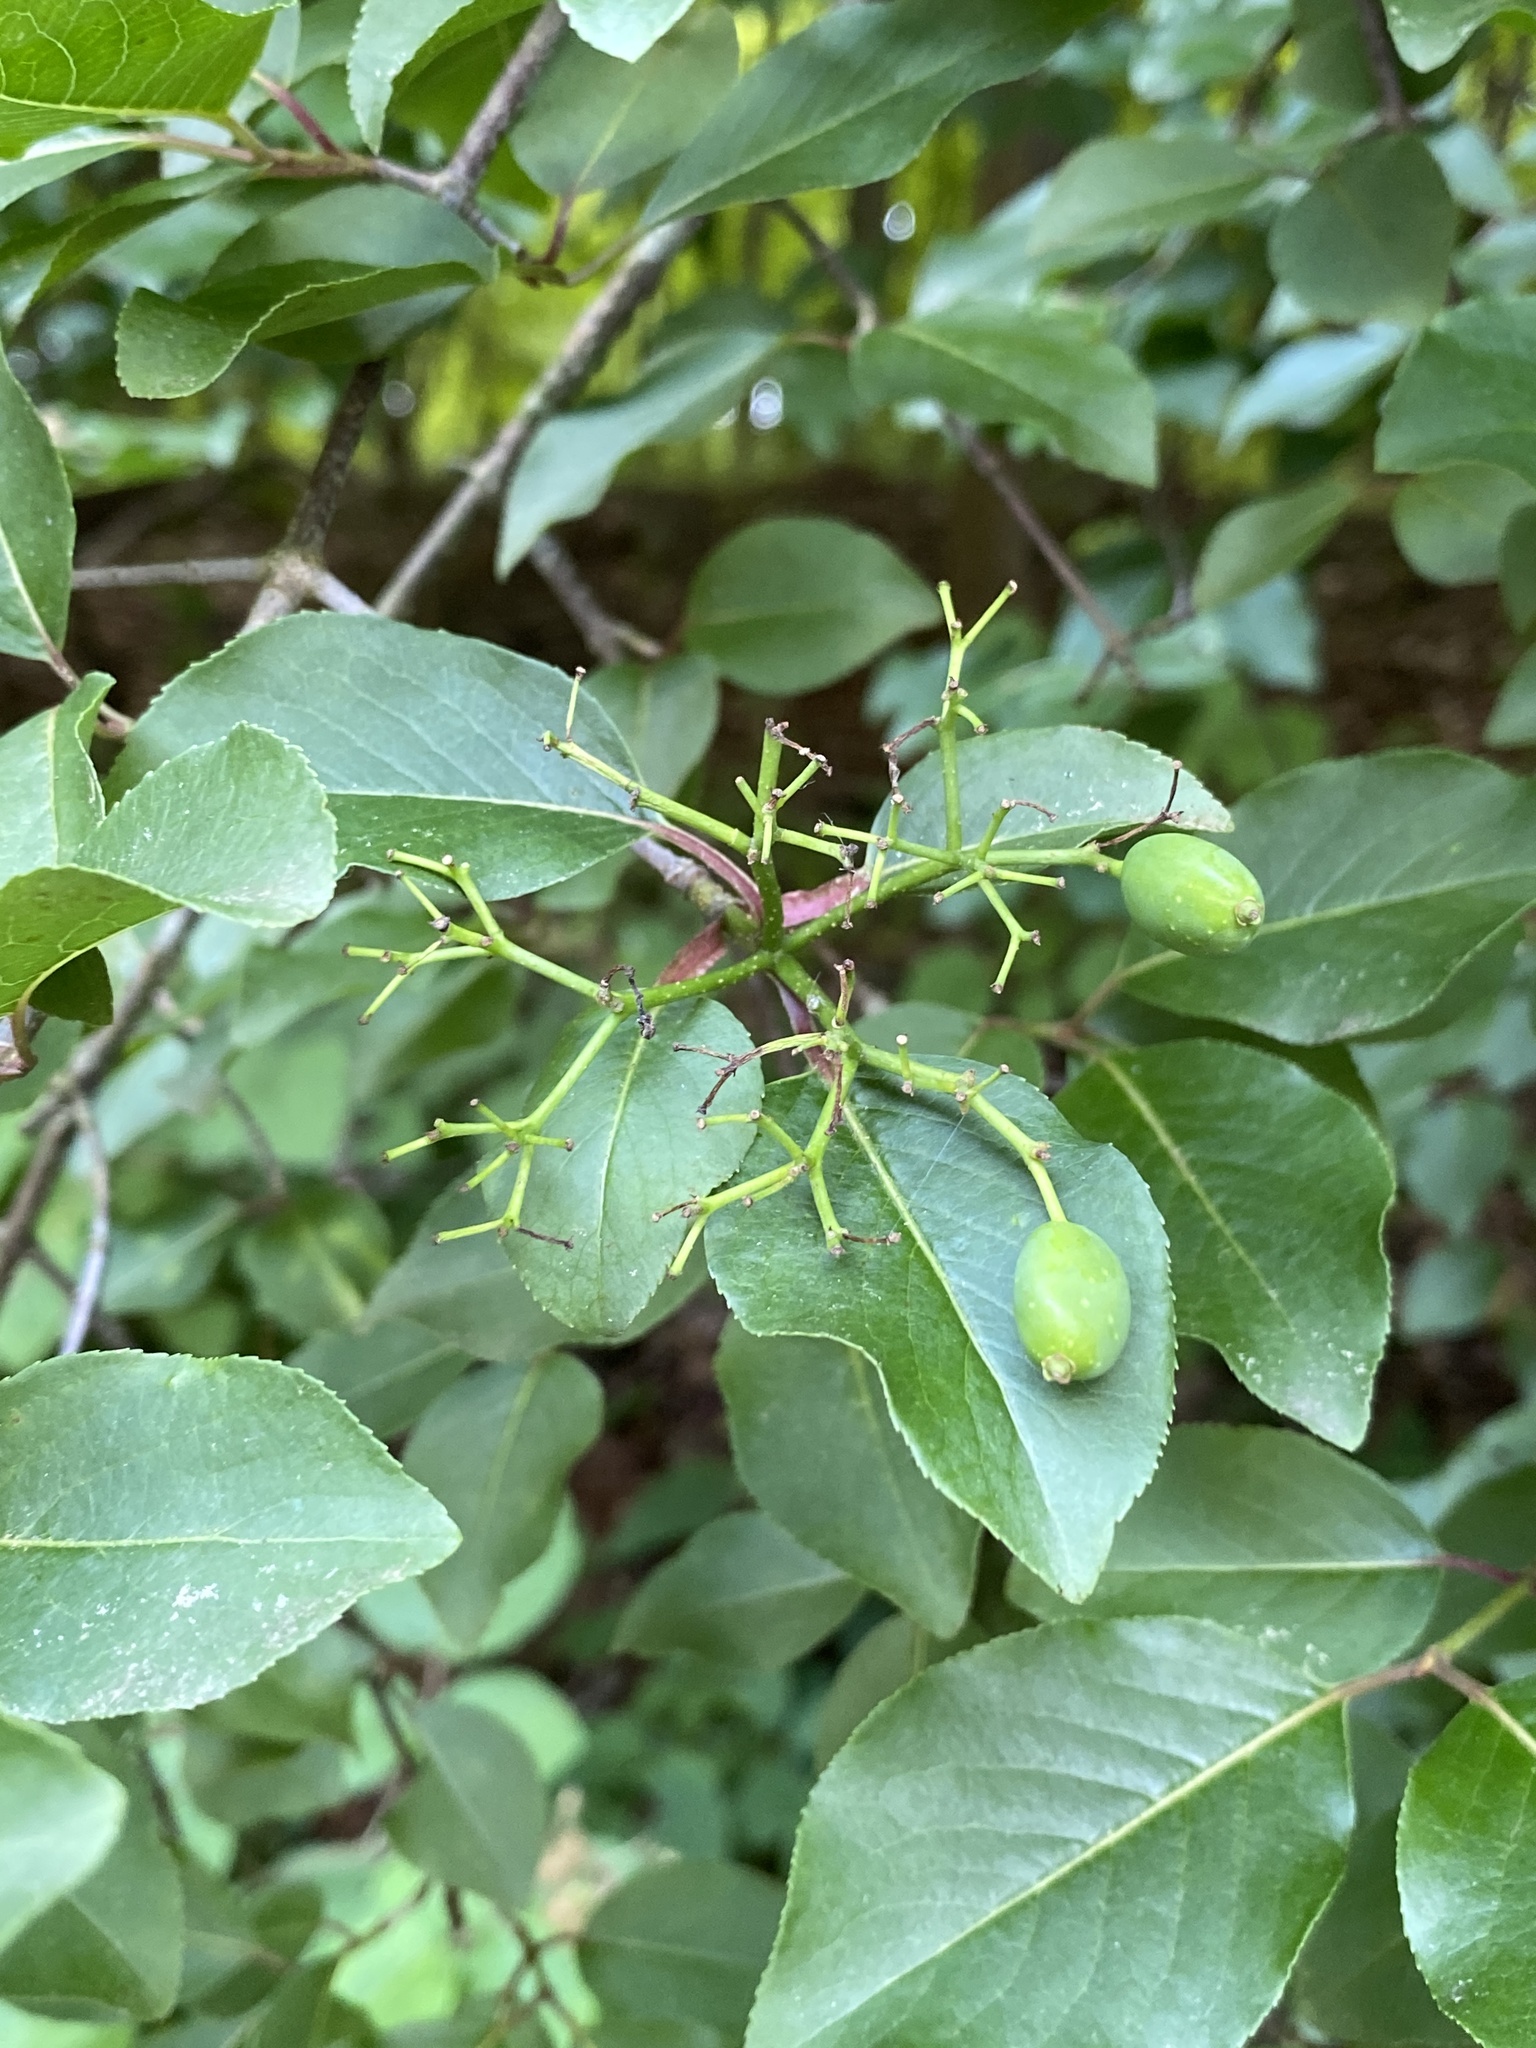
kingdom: Plantae
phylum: Tracheophyta
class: Magnoliopsida
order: Dipsacales
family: Viburnaceae
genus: Viburnum
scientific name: Viburnum prunifolium
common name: Black haw
